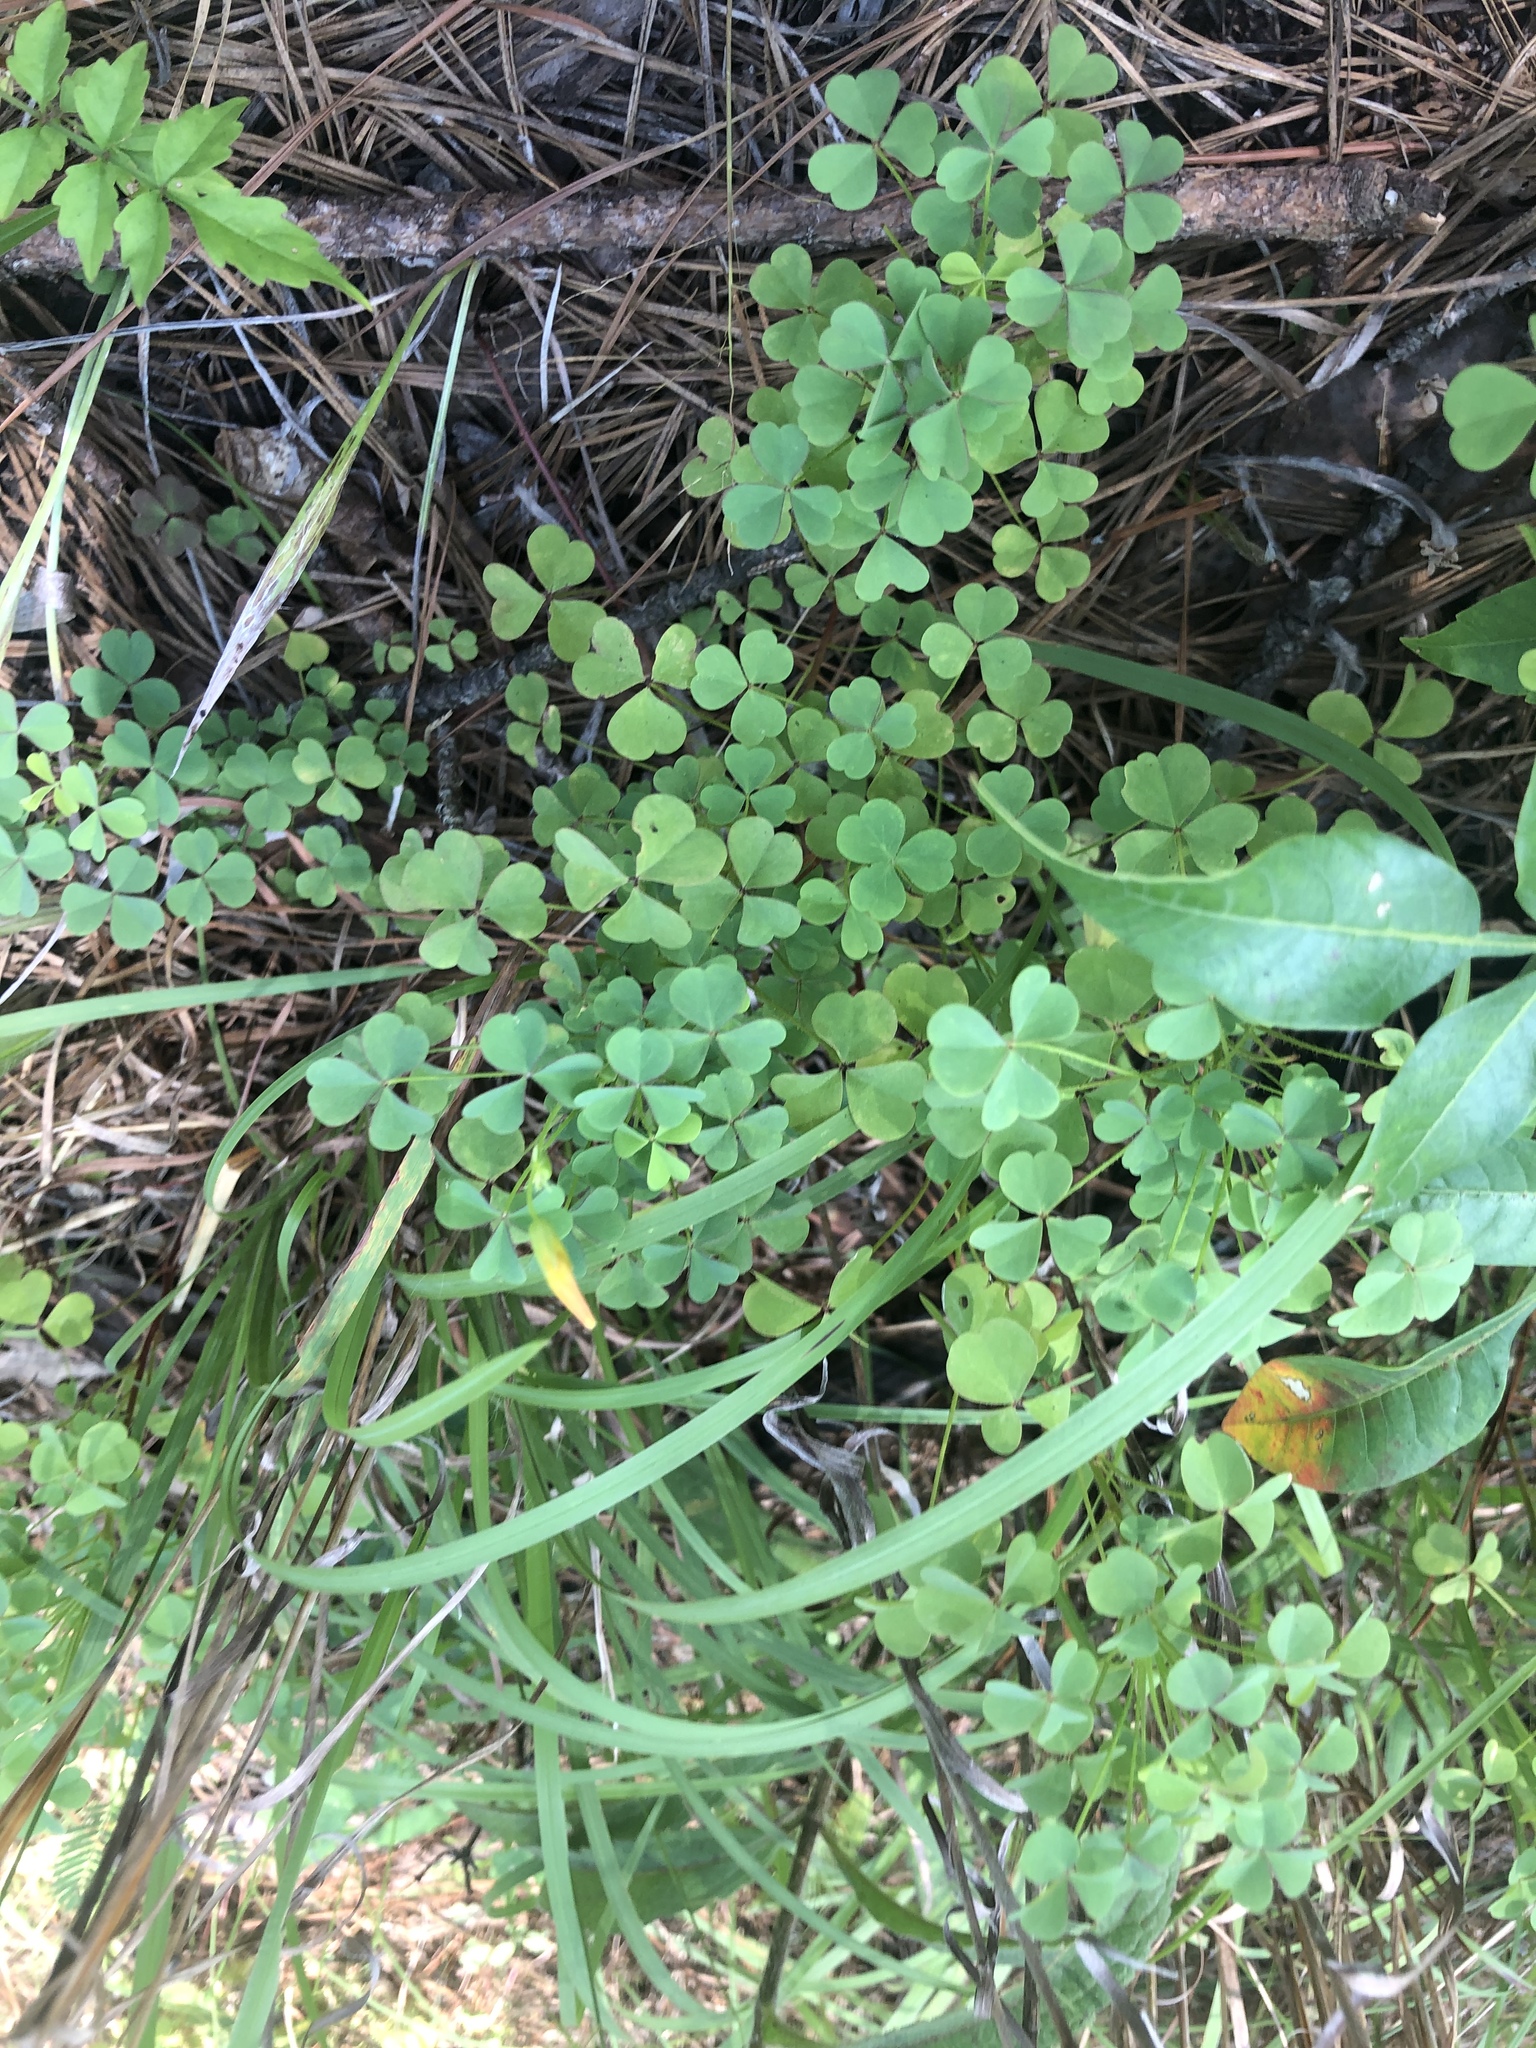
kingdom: Plantae
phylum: Tracheophyta
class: Magnoliopsida
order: Oxalidales
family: Oxalidaceae
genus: Oxalis
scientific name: Oxalis macrantha
